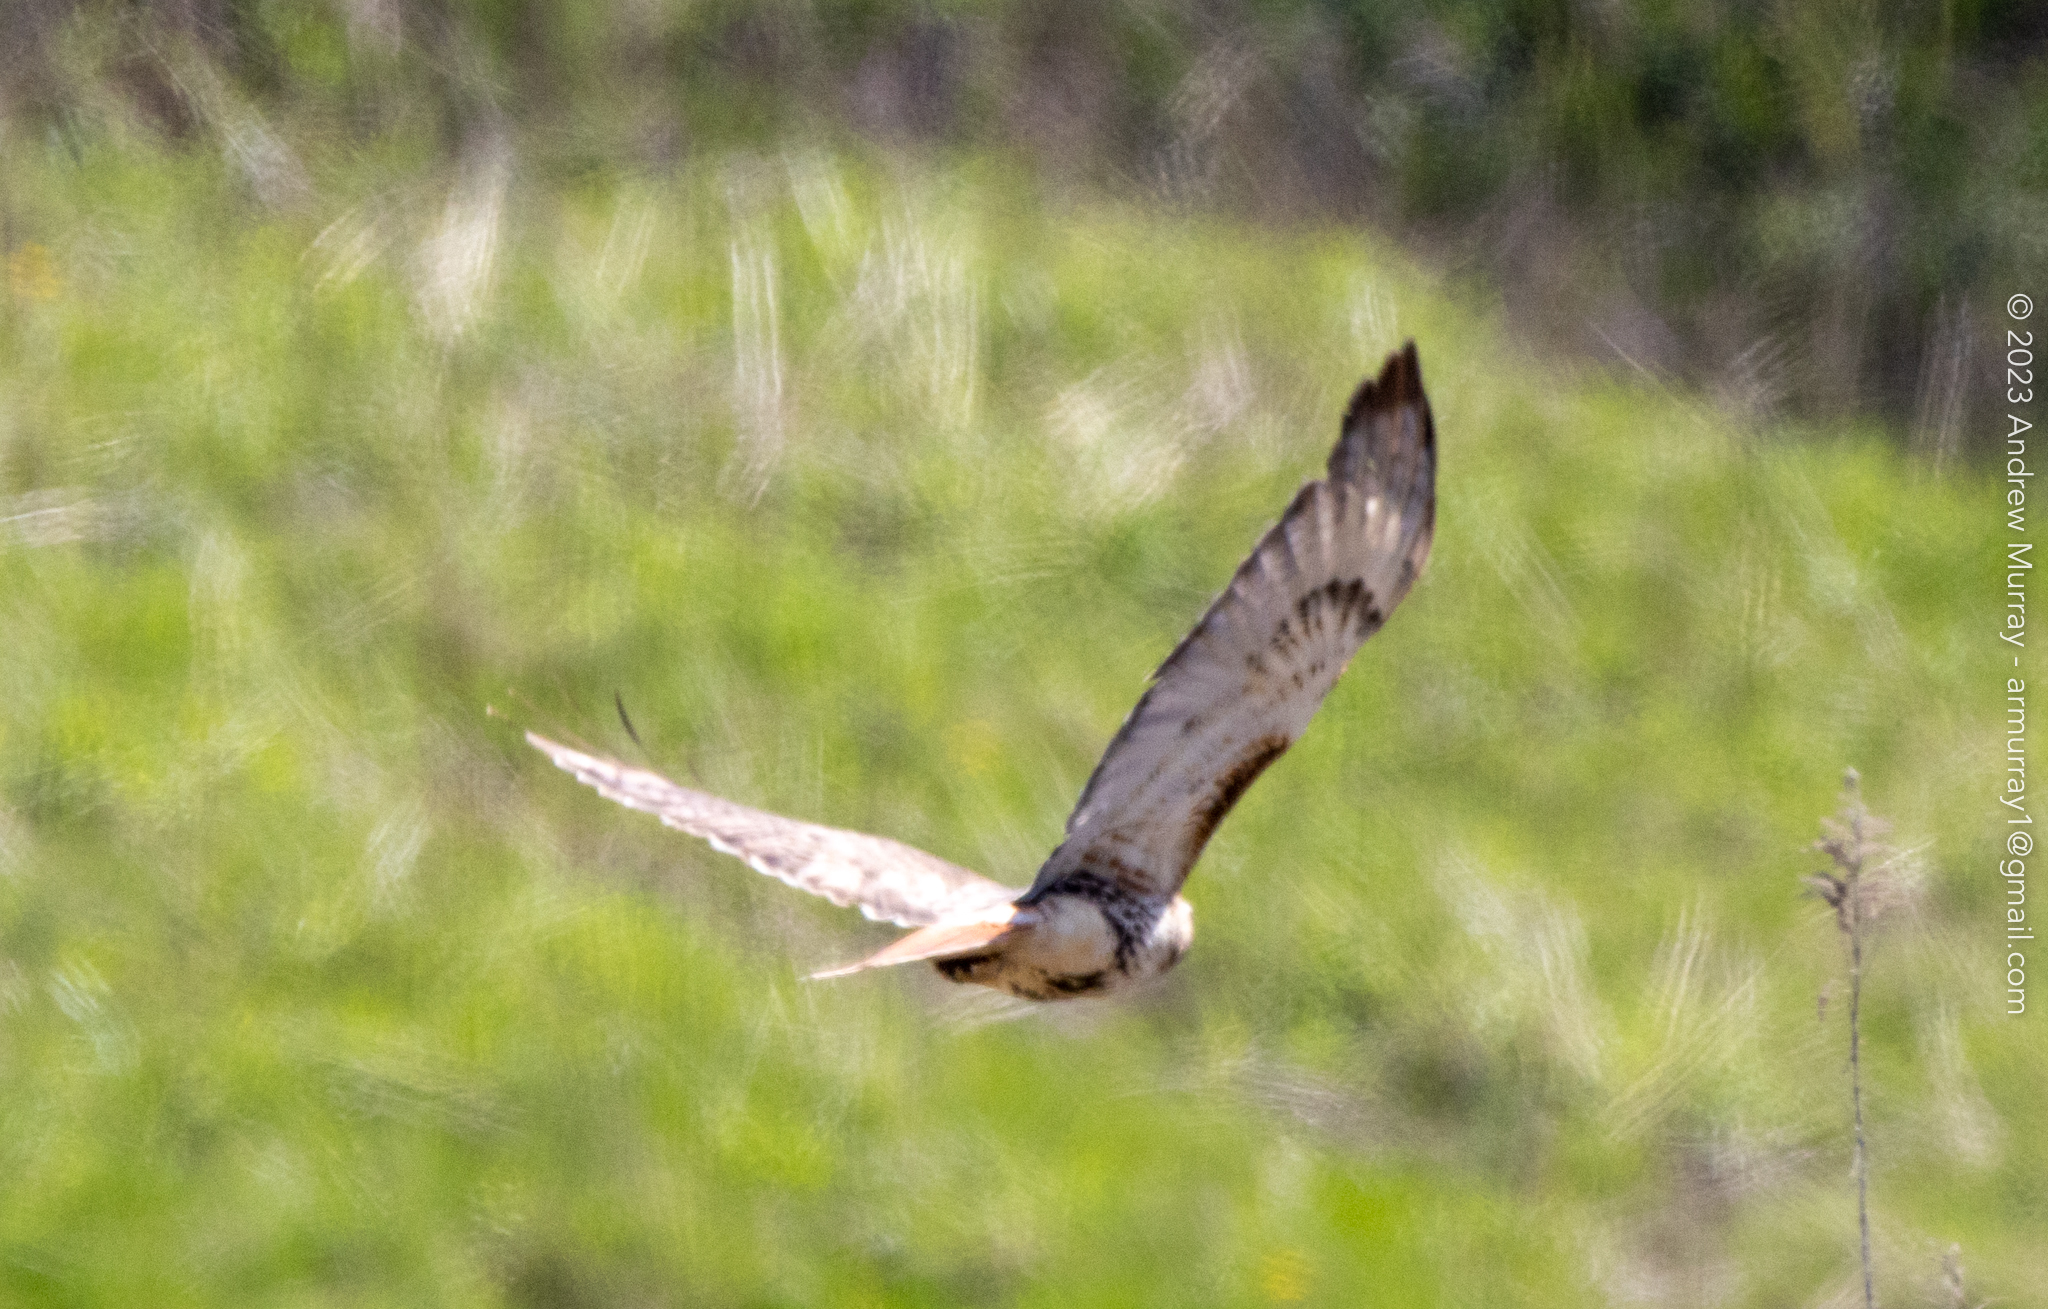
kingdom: Animalia
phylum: Chordata
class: Aves
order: Accipitriformes
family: Accipitridae
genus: Buteo
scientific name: Buteo jamaicensis
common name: Red-tailed hawk
